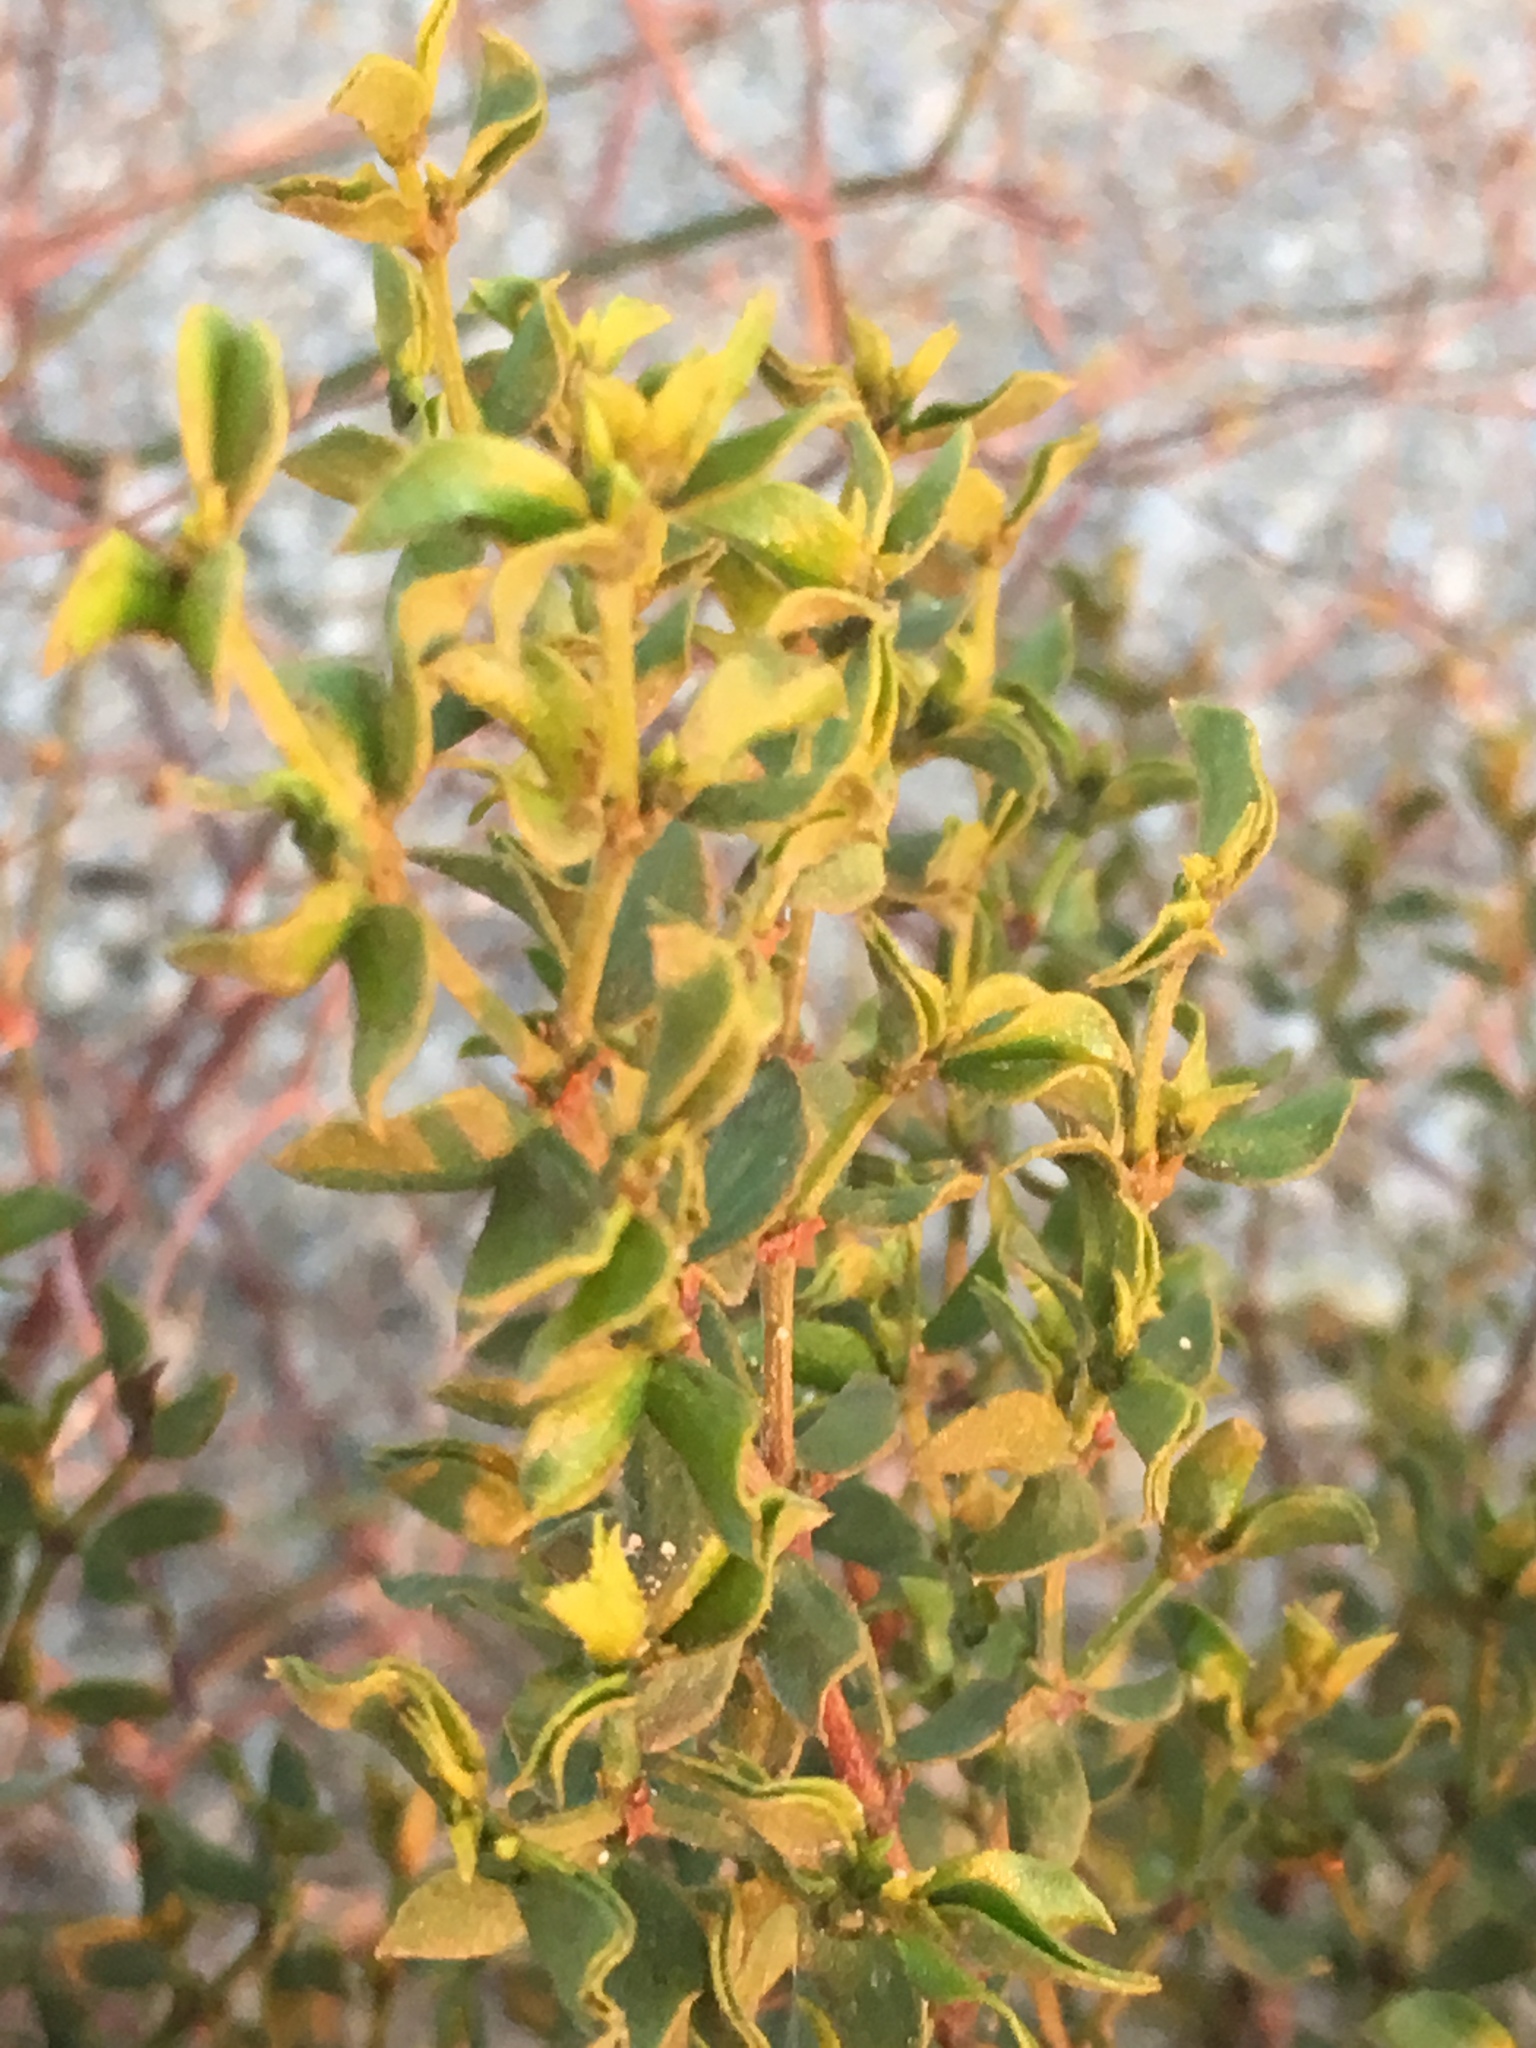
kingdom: Plantae
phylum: Tracheophyta
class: Magnoliopsida
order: Zygophyllales
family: Zygophyllaceae
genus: Larrea
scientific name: Larrea tridentata
